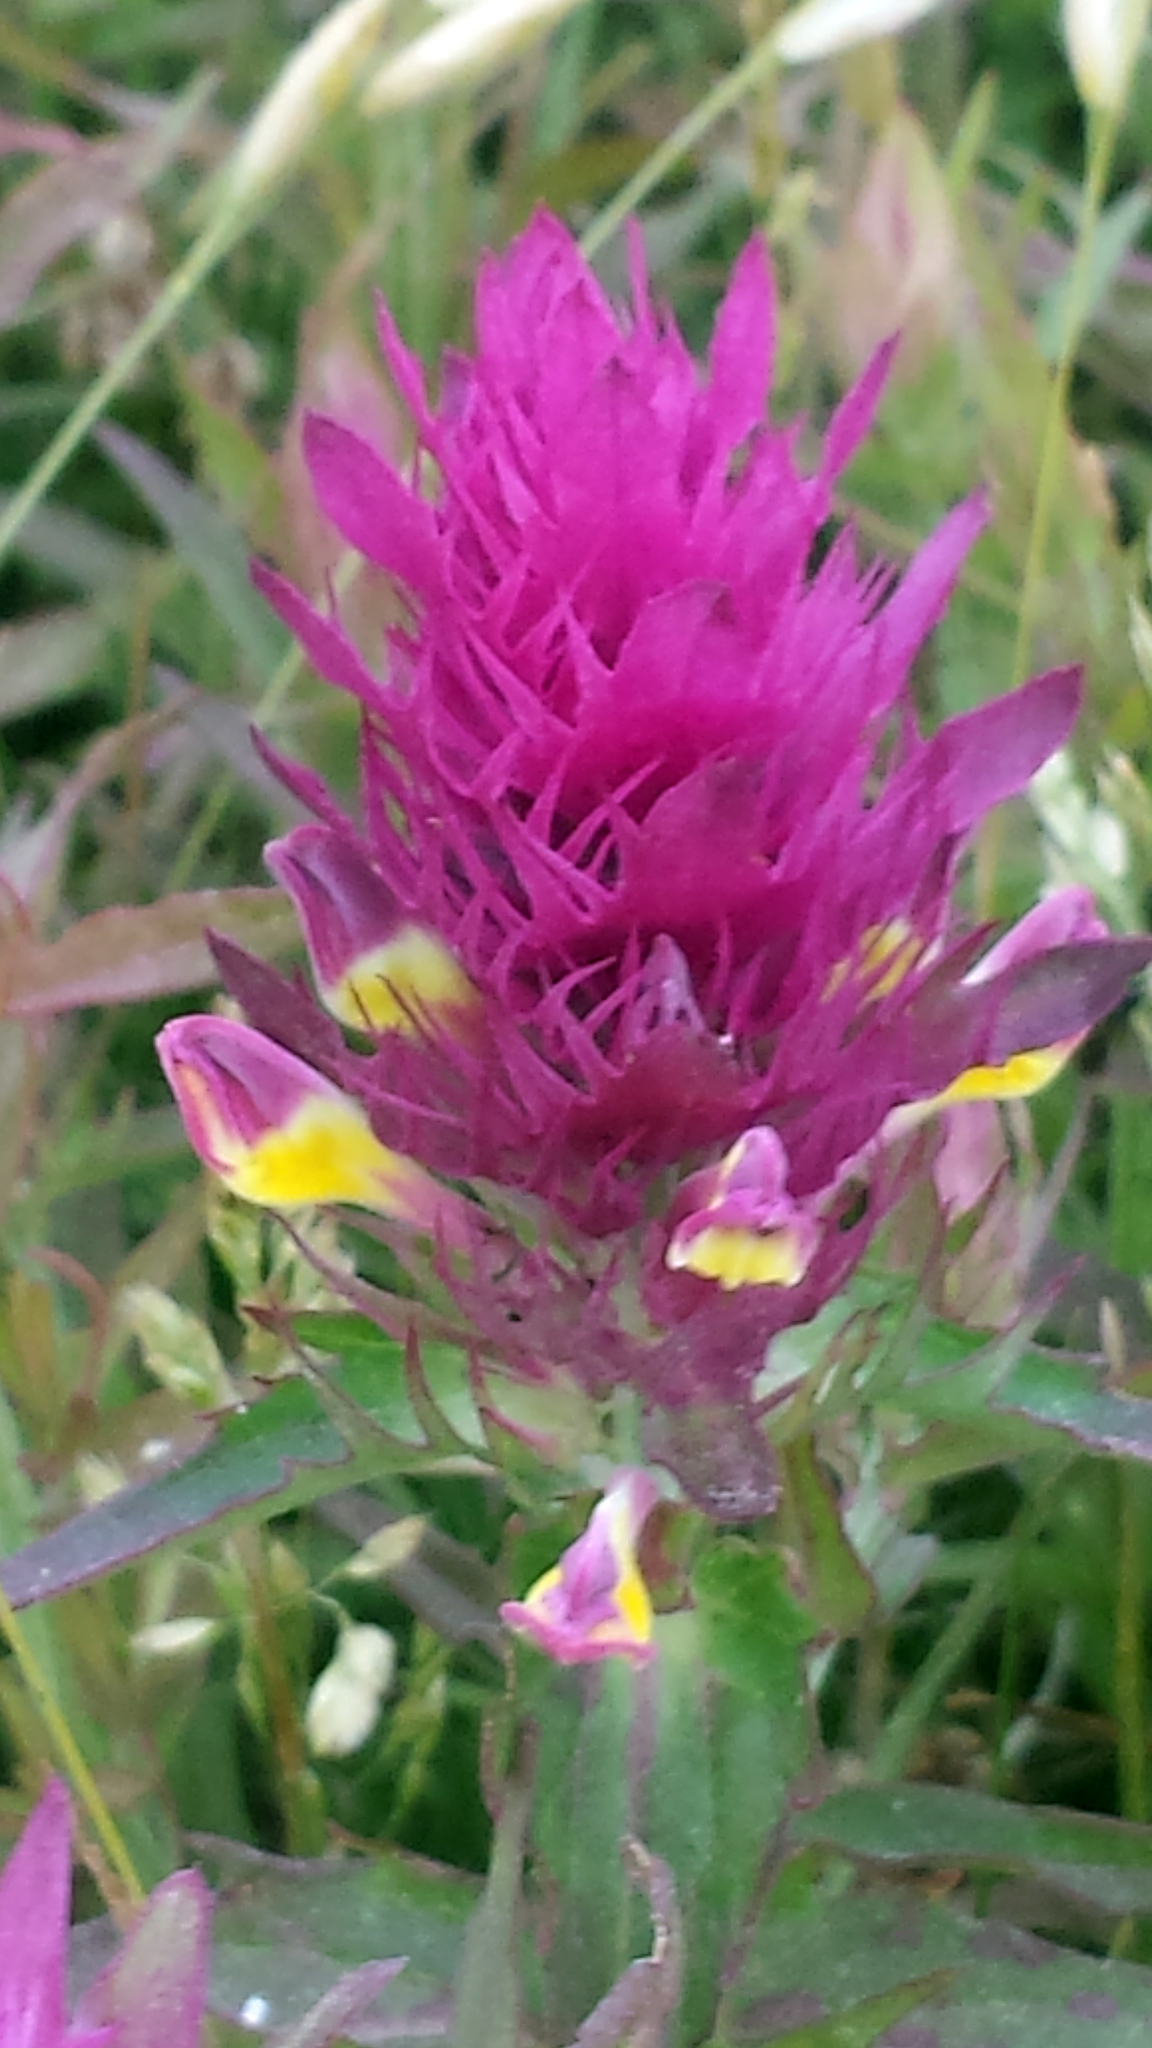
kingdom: Plantae
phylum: Tracheophyta
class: Magnoliopsida
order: Lamiales
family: Orobanchaceae
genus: Melampyrum
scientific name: Melampyrum arvense
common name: Field cow-wheat
